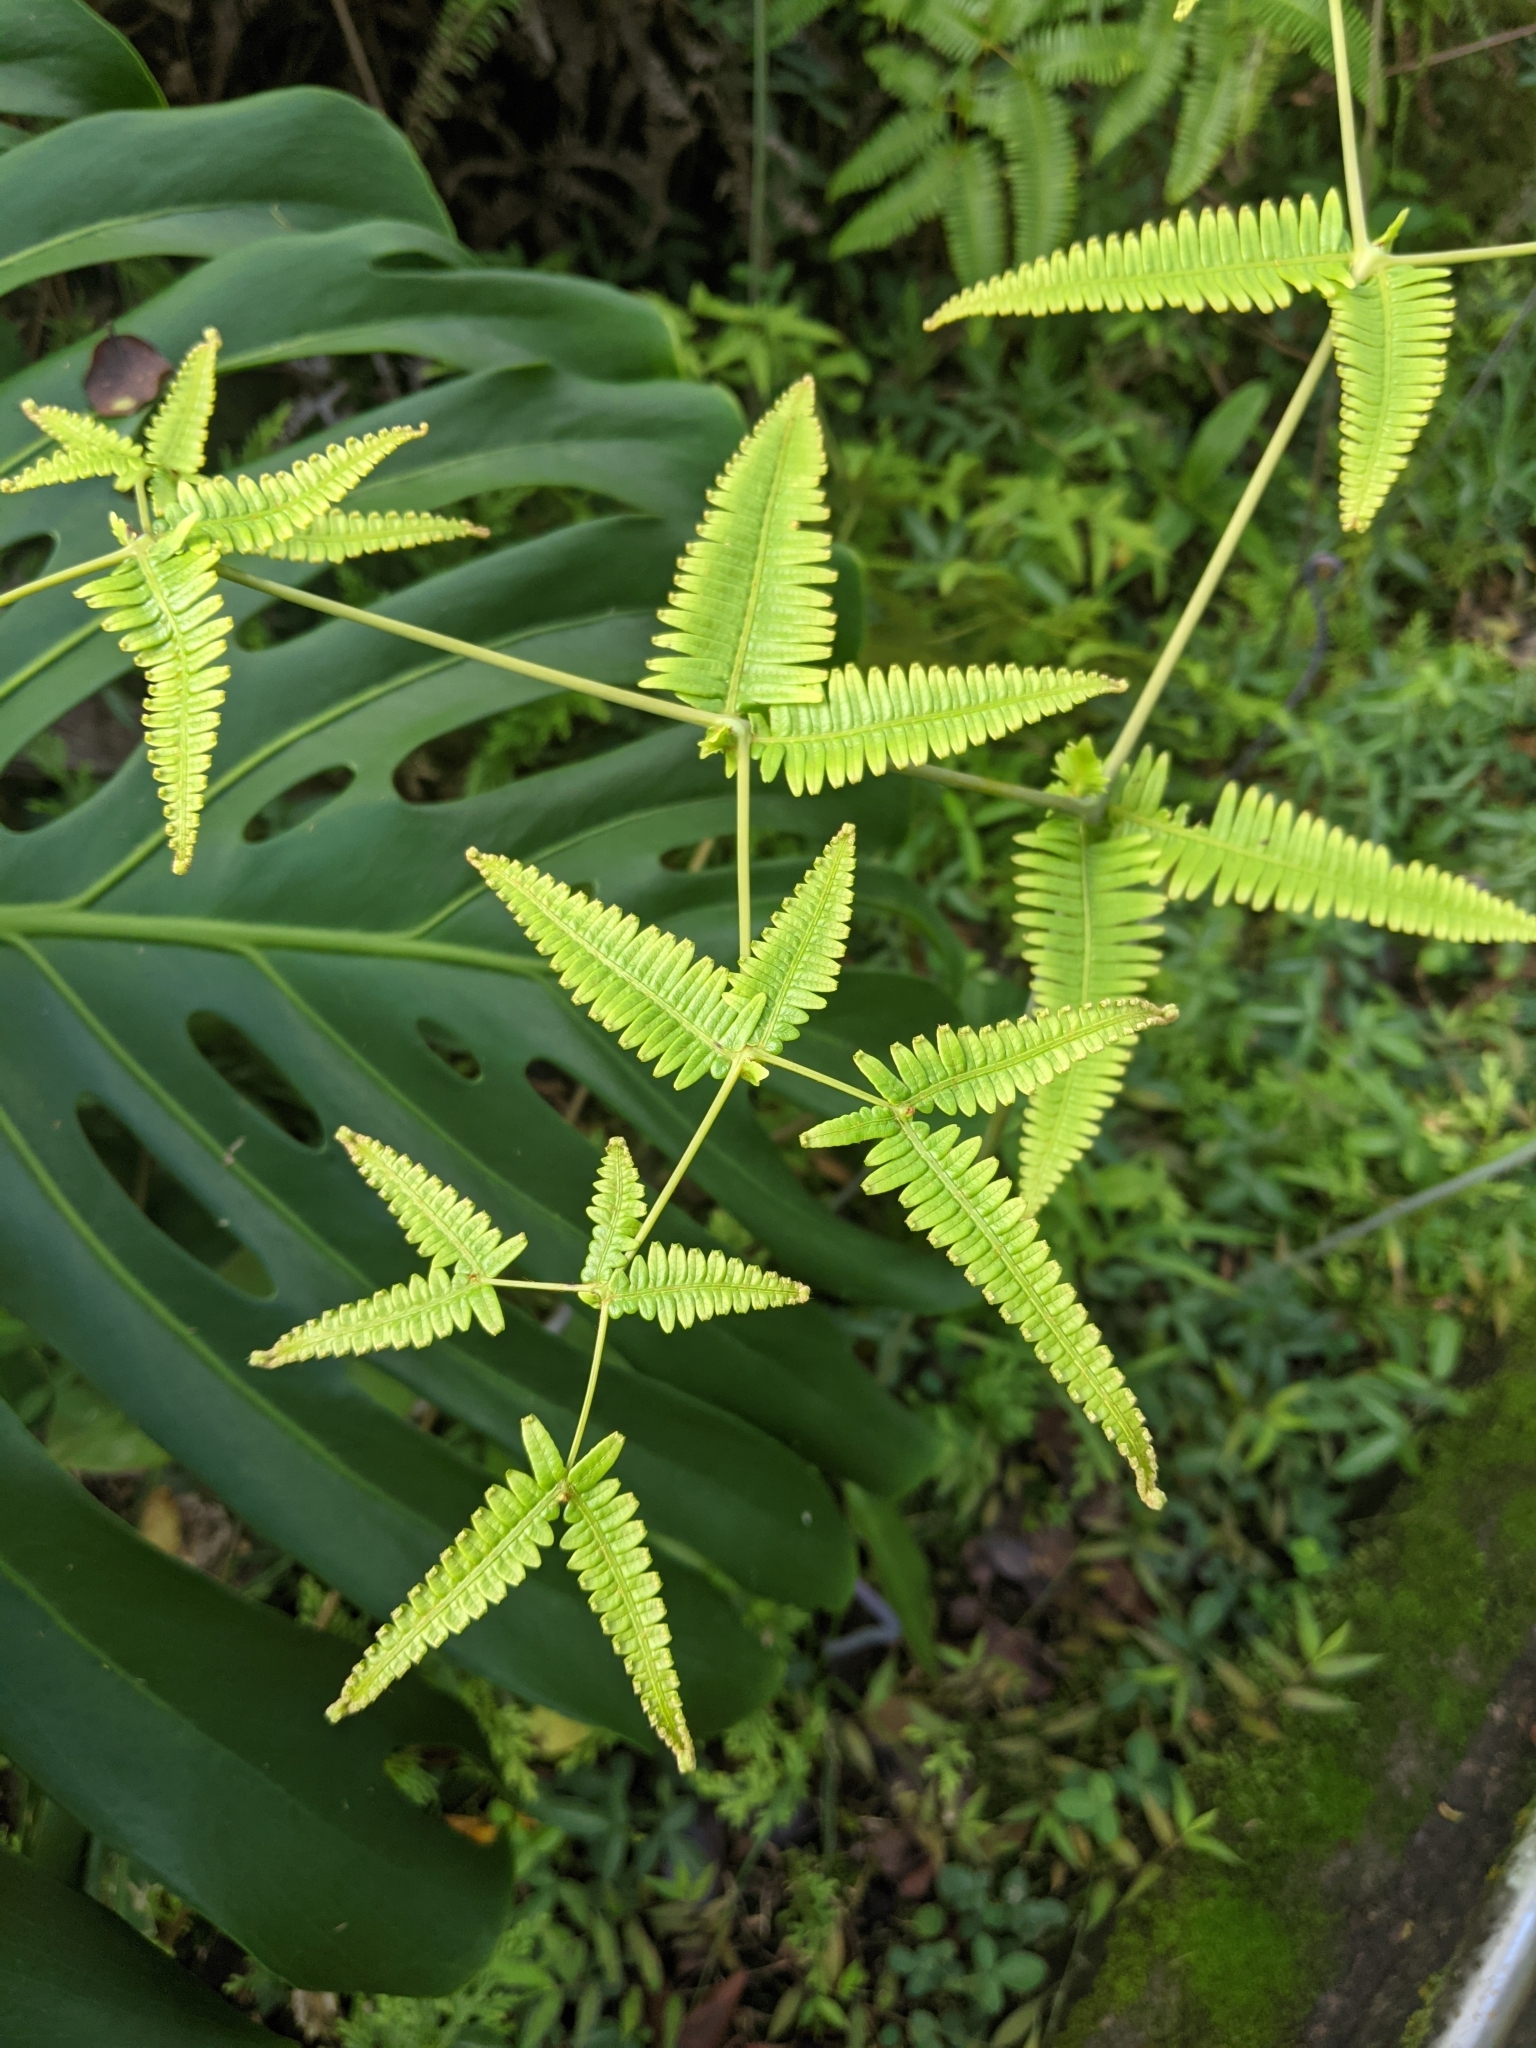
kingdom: Plantae
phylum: Tracheophyta
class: Polypodiopsida
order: Gleicheniales
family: Gleicheniaceae
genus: Dicranopteris
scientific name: Dicranopteris linearis
